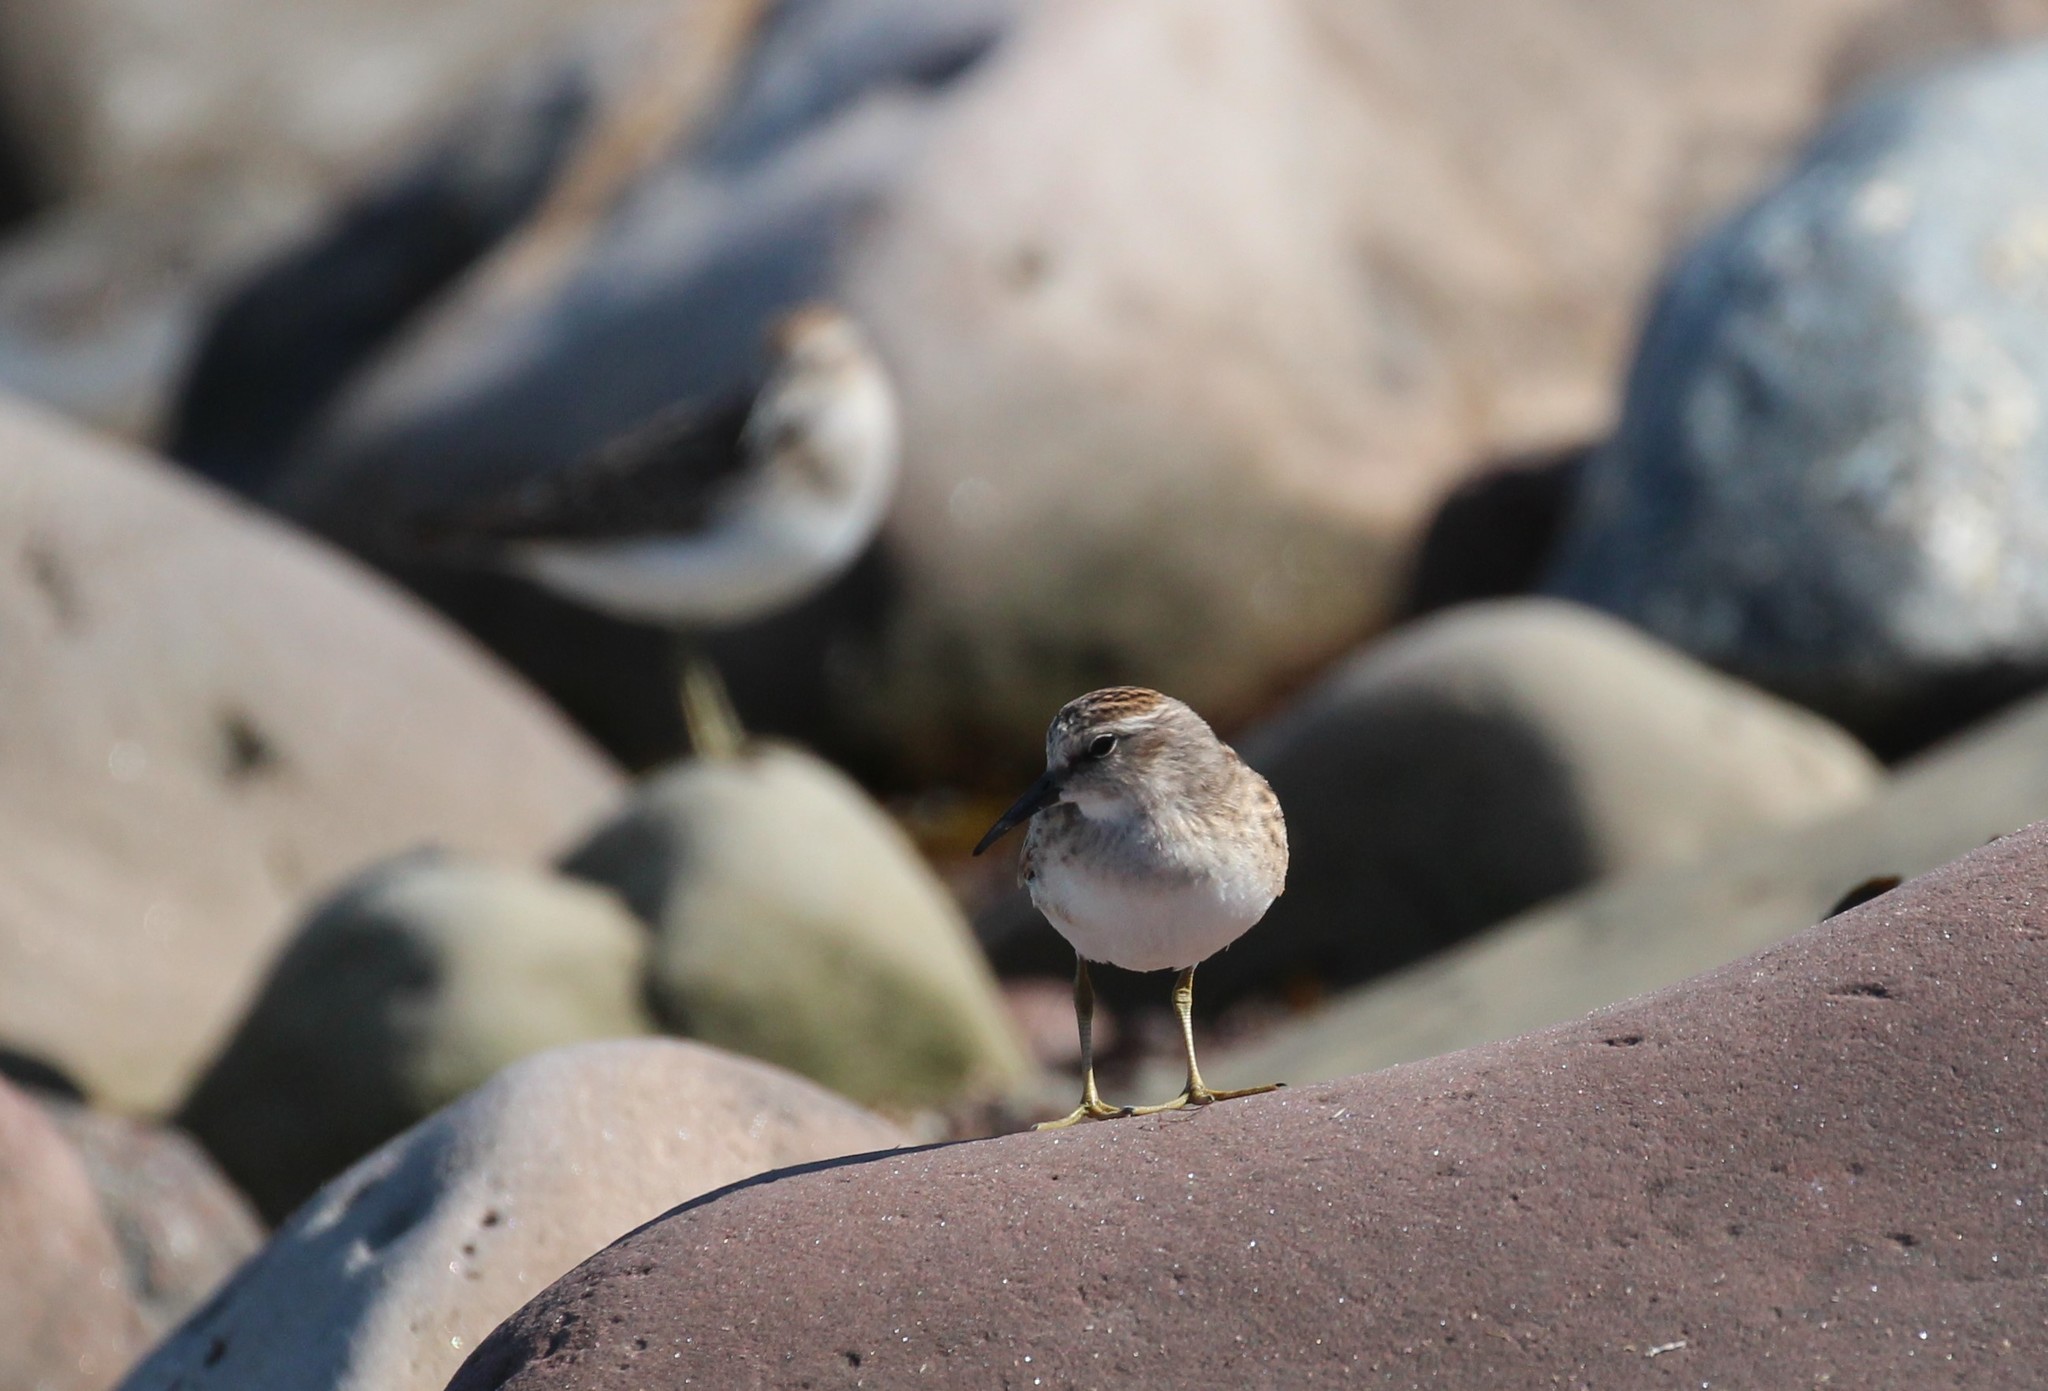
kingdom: Animalia
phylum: Chordata
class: Aves
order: Charadriiformes
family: Scolopacidae
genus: Calidris
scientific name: Calidris minutilla
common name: Least sandpiper
